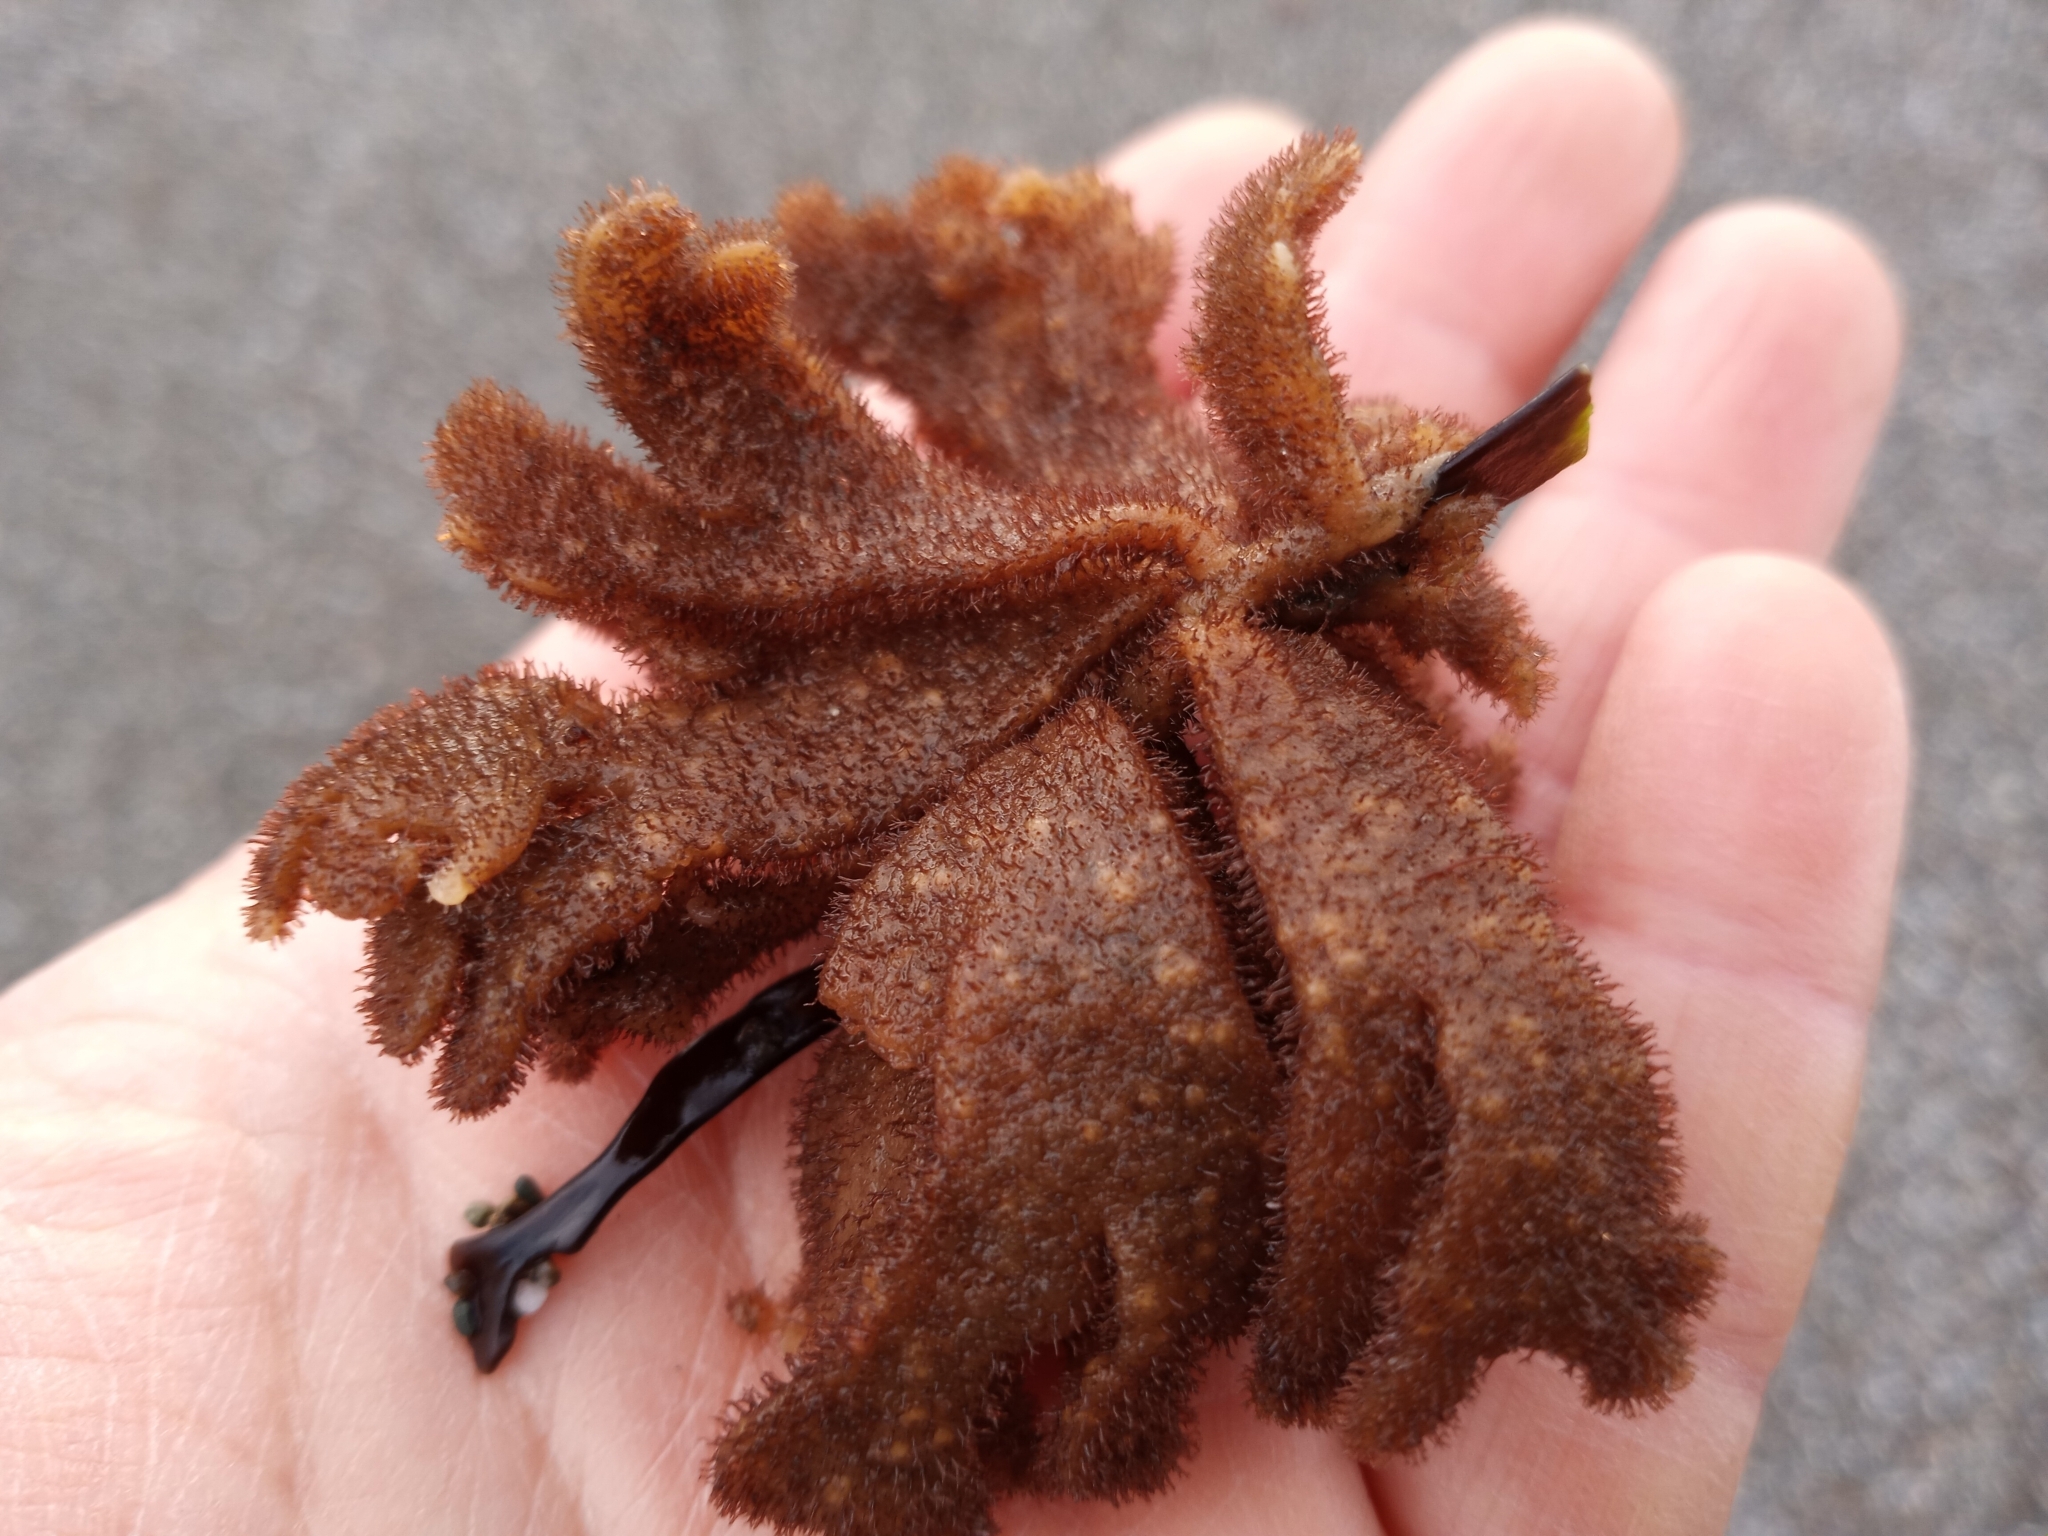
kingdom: Animalia
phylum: Bryozoa
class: Gymnolaemata
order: Ctenostomatida
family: Flustrellidridae
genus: Flustrellidra
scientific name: Flustrellidra corniculata
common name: Spiny leather bryozoan
